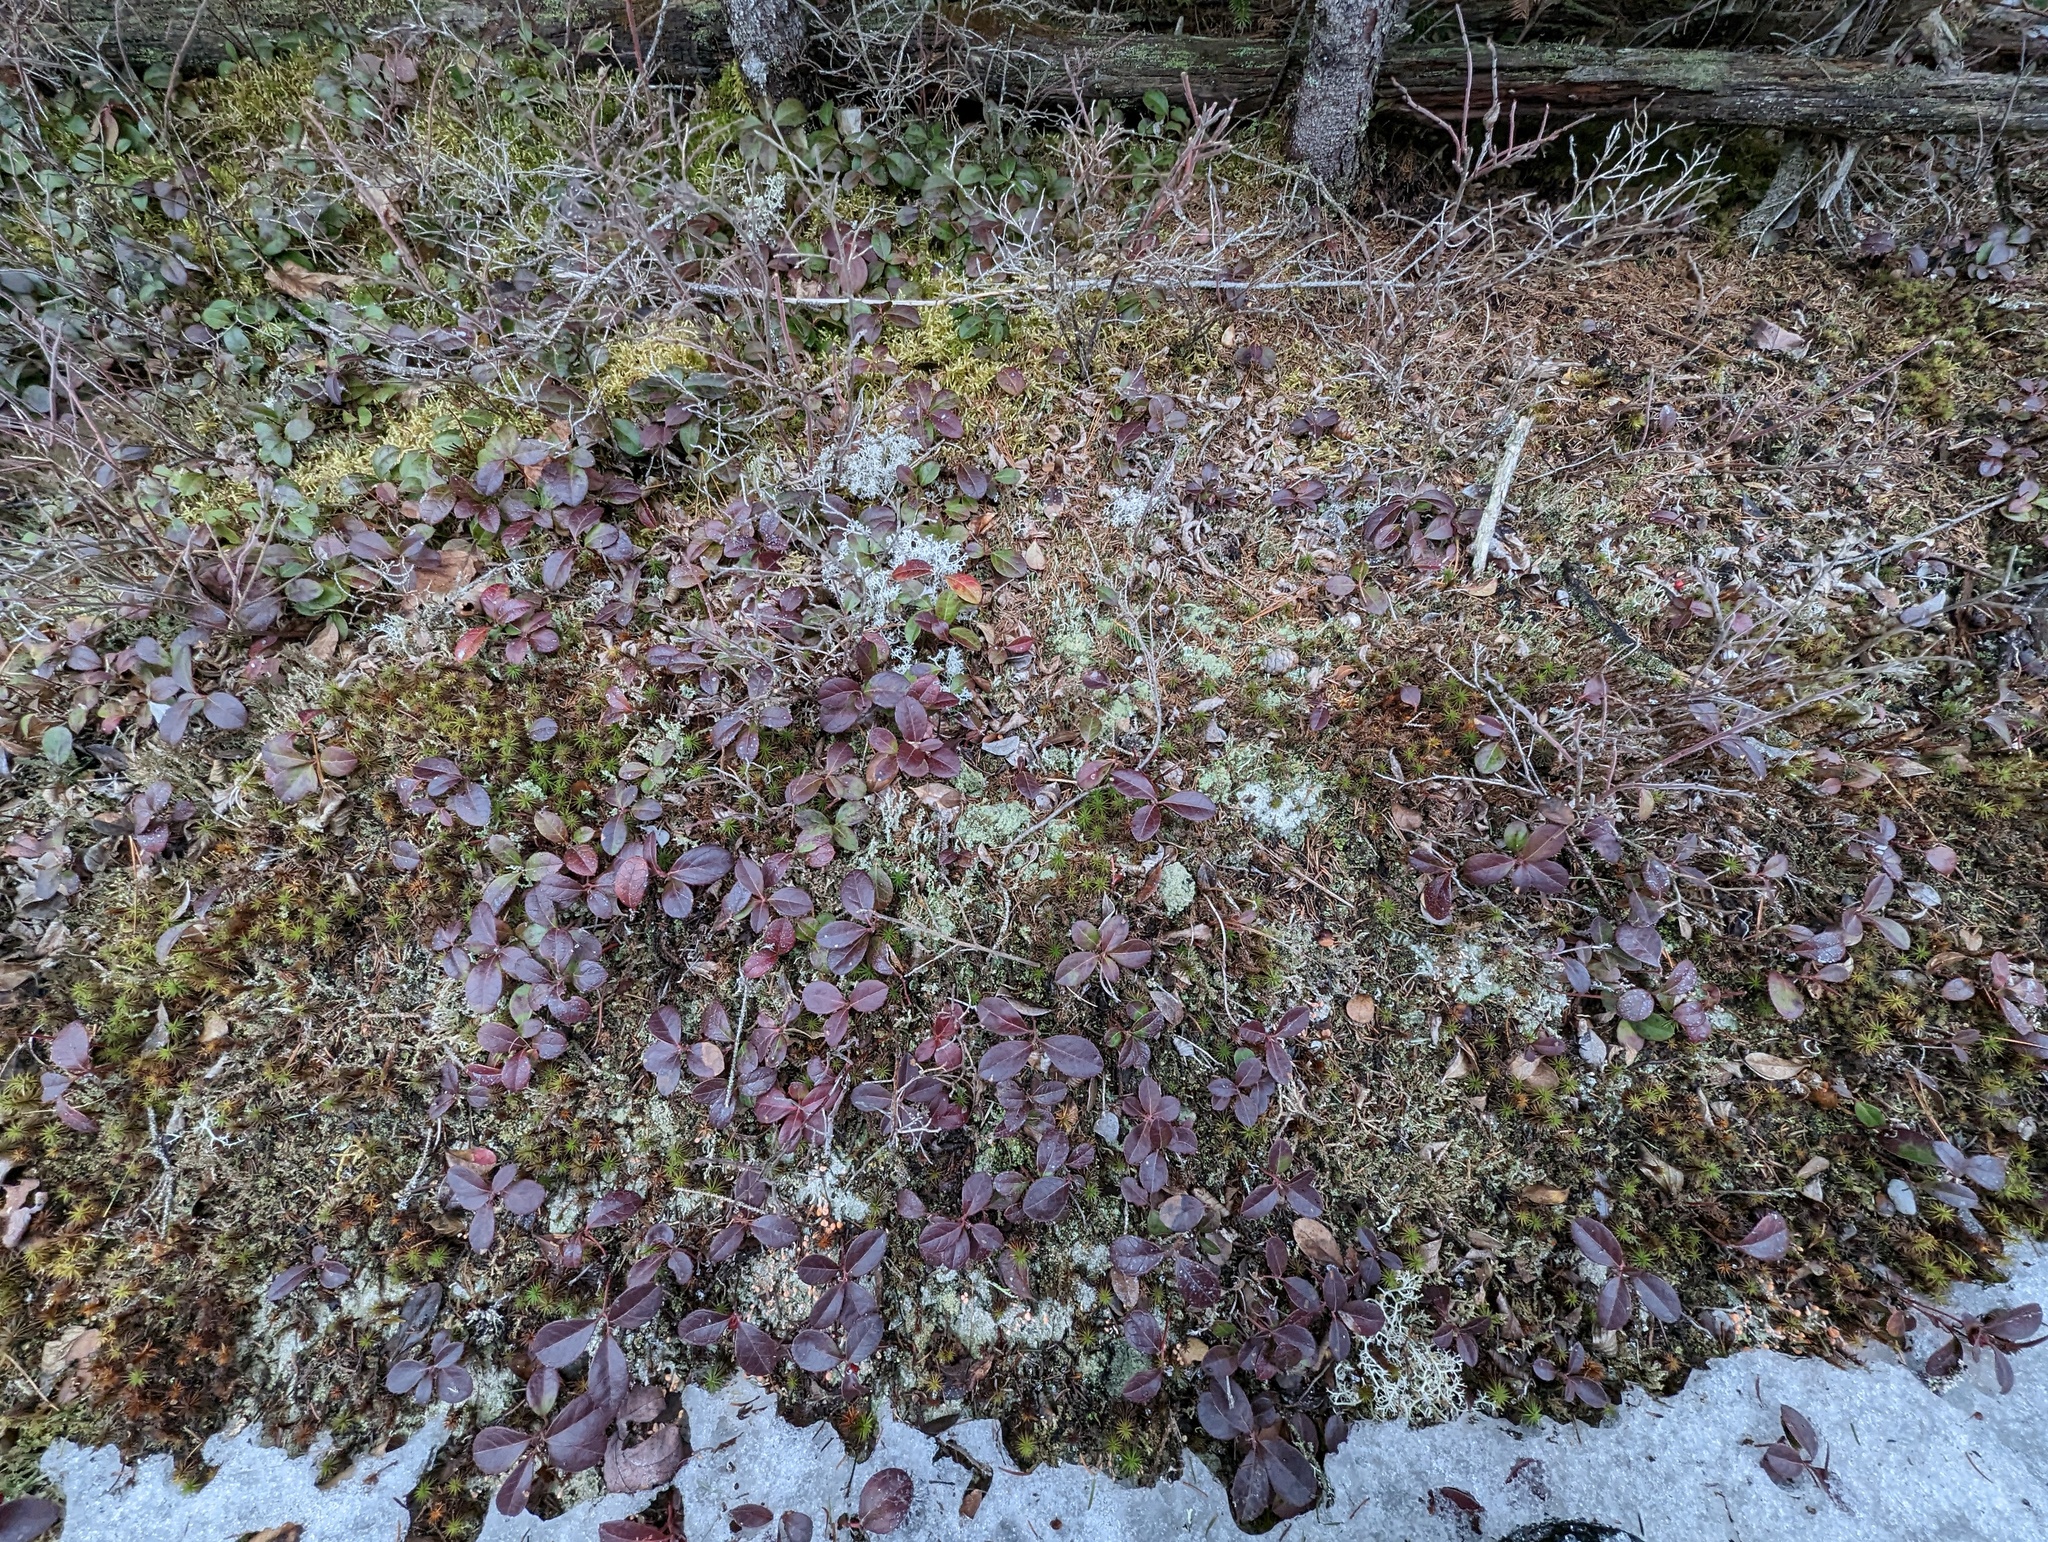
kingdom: Plantae
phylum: Tracheophyta
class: Magnoliopsida
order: Ericales
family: Ericaceae
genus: Gaultheria
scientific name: Gaultheria procumbens
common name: Checkerberry
